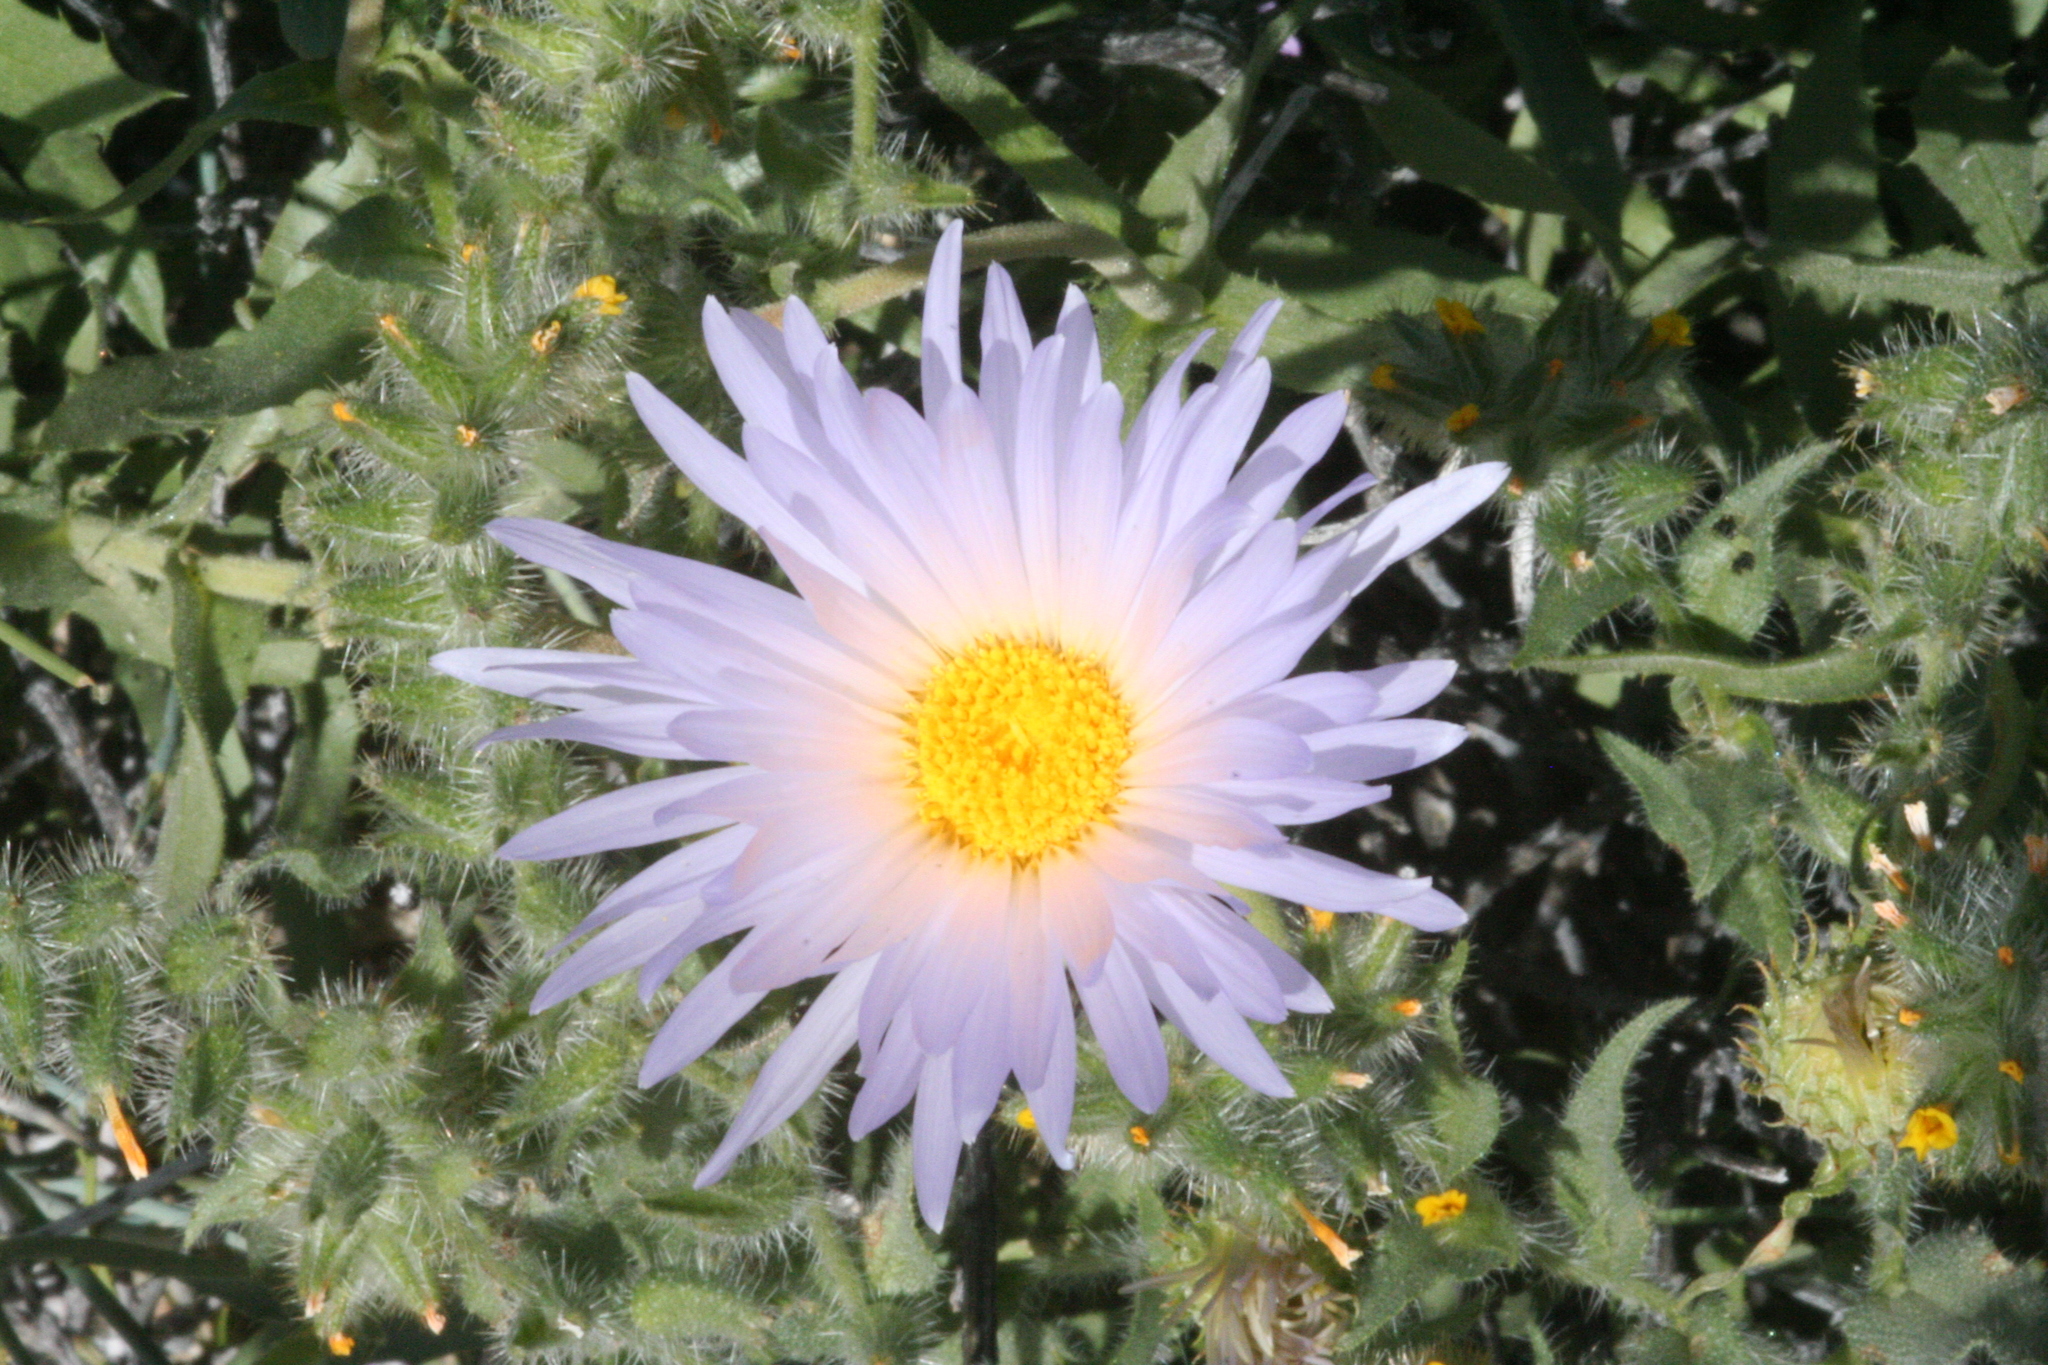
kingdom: Plantae
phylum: Tracheophyta
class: Magnoliopsida
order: Asterales
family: Asteraceae
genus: Xylorhiza
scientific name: Xylorhiza tortifolia
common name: Hurt-leaf woody-aster
